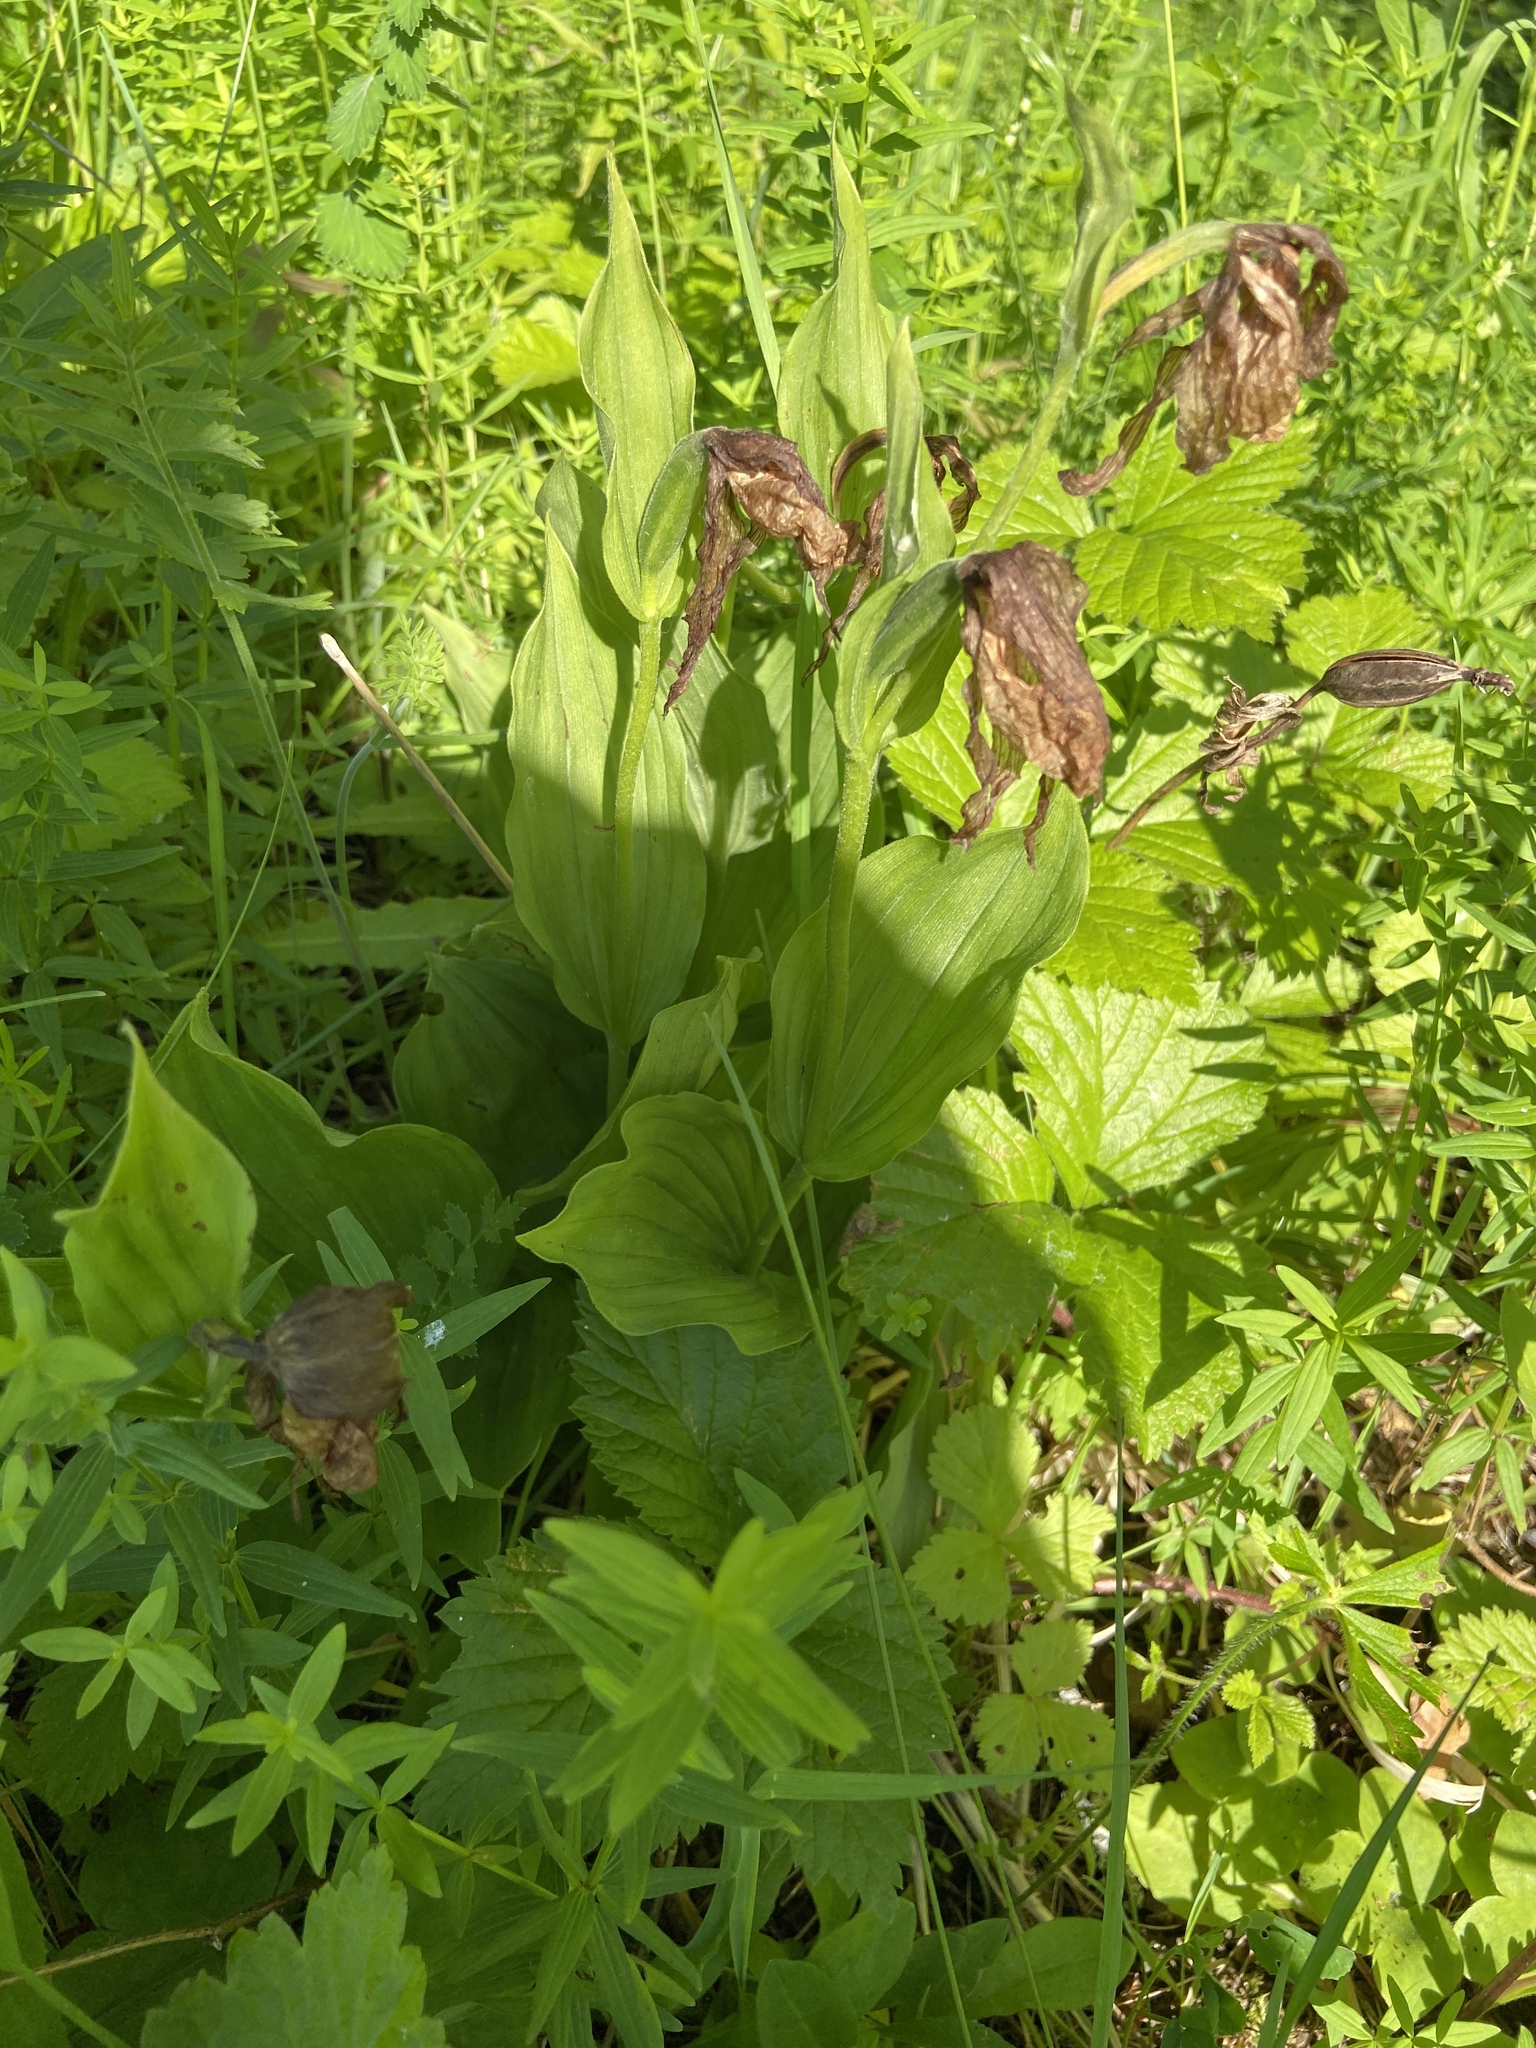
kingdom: Plantae
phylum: Tracheophyta
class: Liliopsida
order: Asparagales
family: Orchidaceae
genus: Cypripedium
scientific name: Cypripedium calceolus
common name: Lady's-slipper
